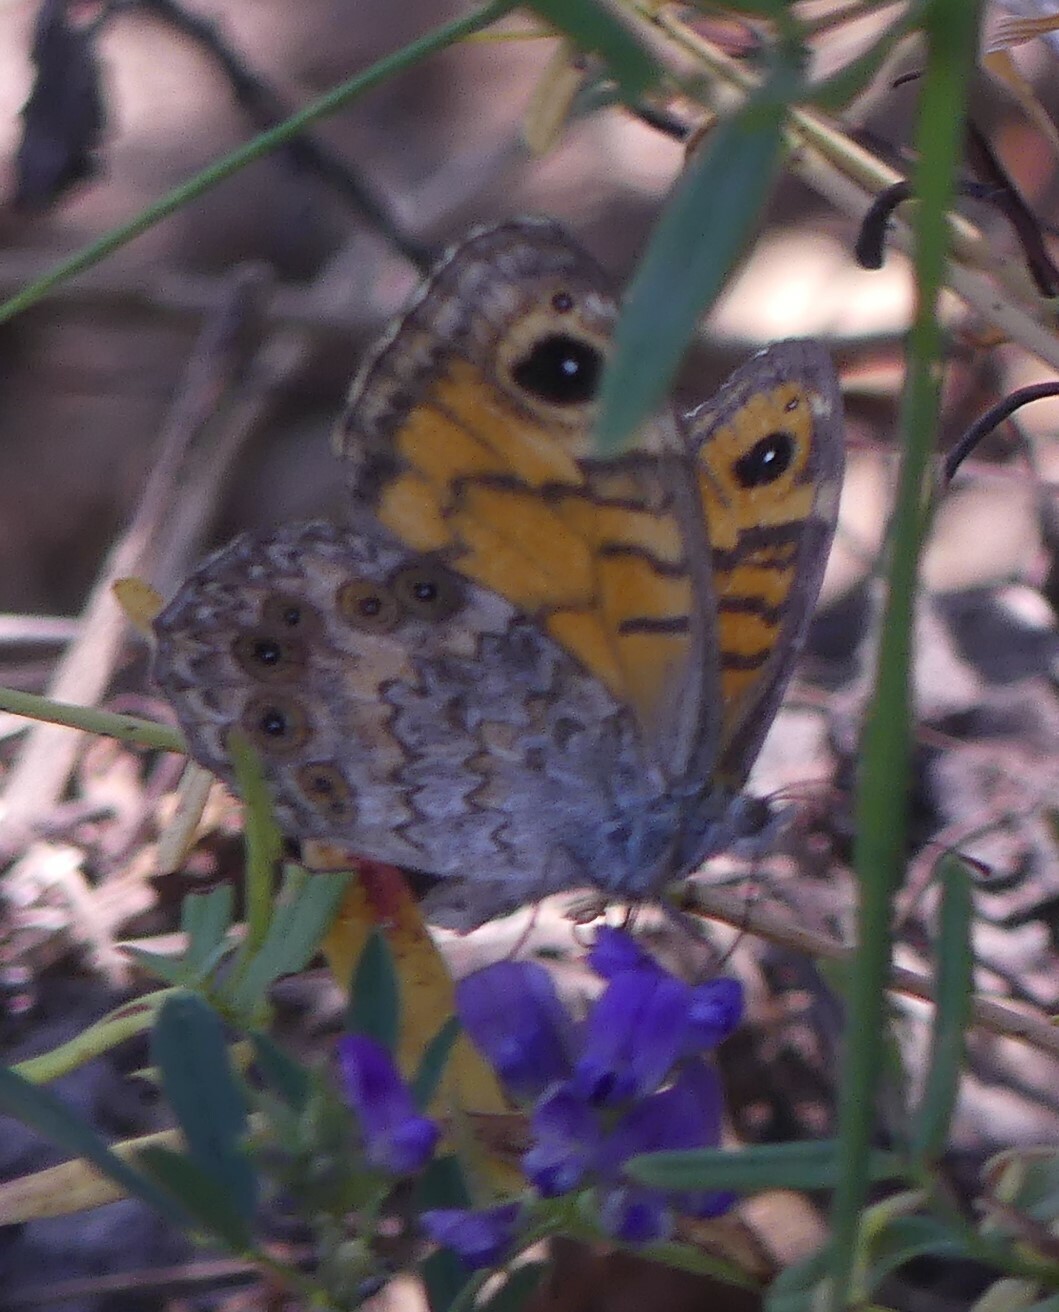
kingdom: Animalia
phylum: Arthropoda
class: Insecta
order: Lepidoptera
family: Nymphalidae
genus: Pararge
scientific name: Pararge Lasiommata megera
